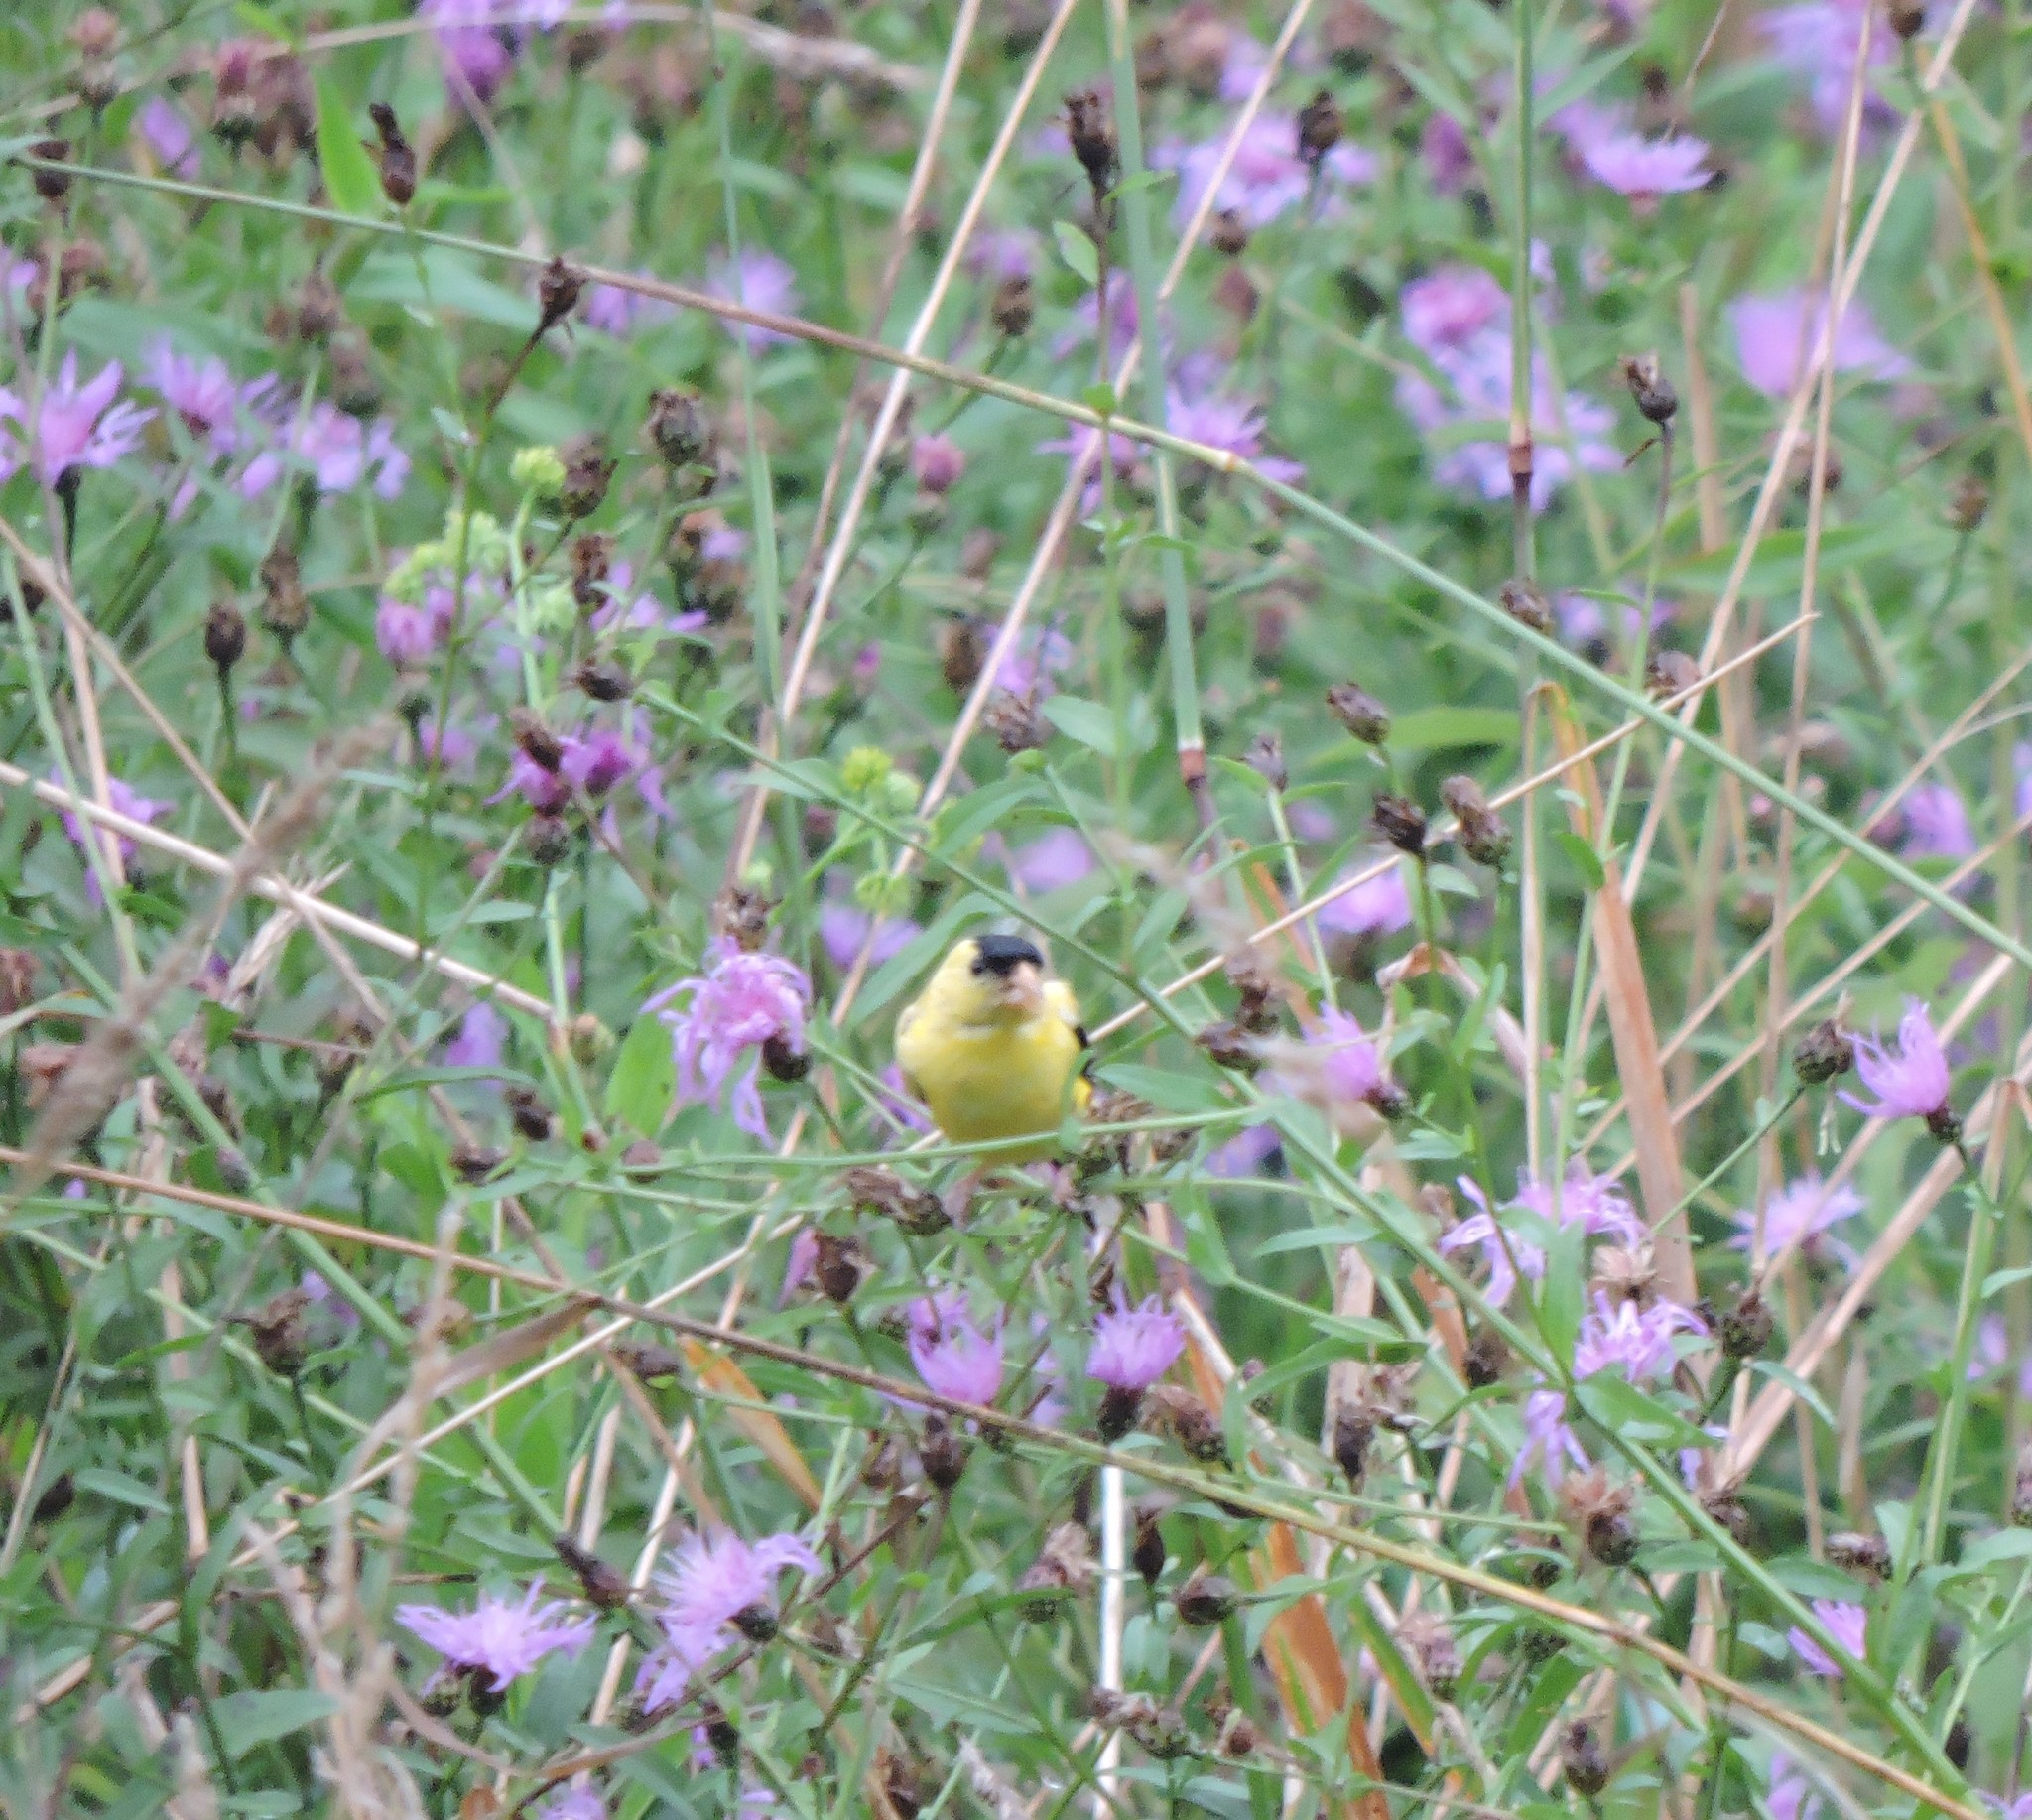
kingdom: Animalia
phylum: Chordata
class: Aves
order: Passeriformes
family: Fringillidae
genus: Spinus
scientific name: Spinus tristis
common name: American goldfinch
